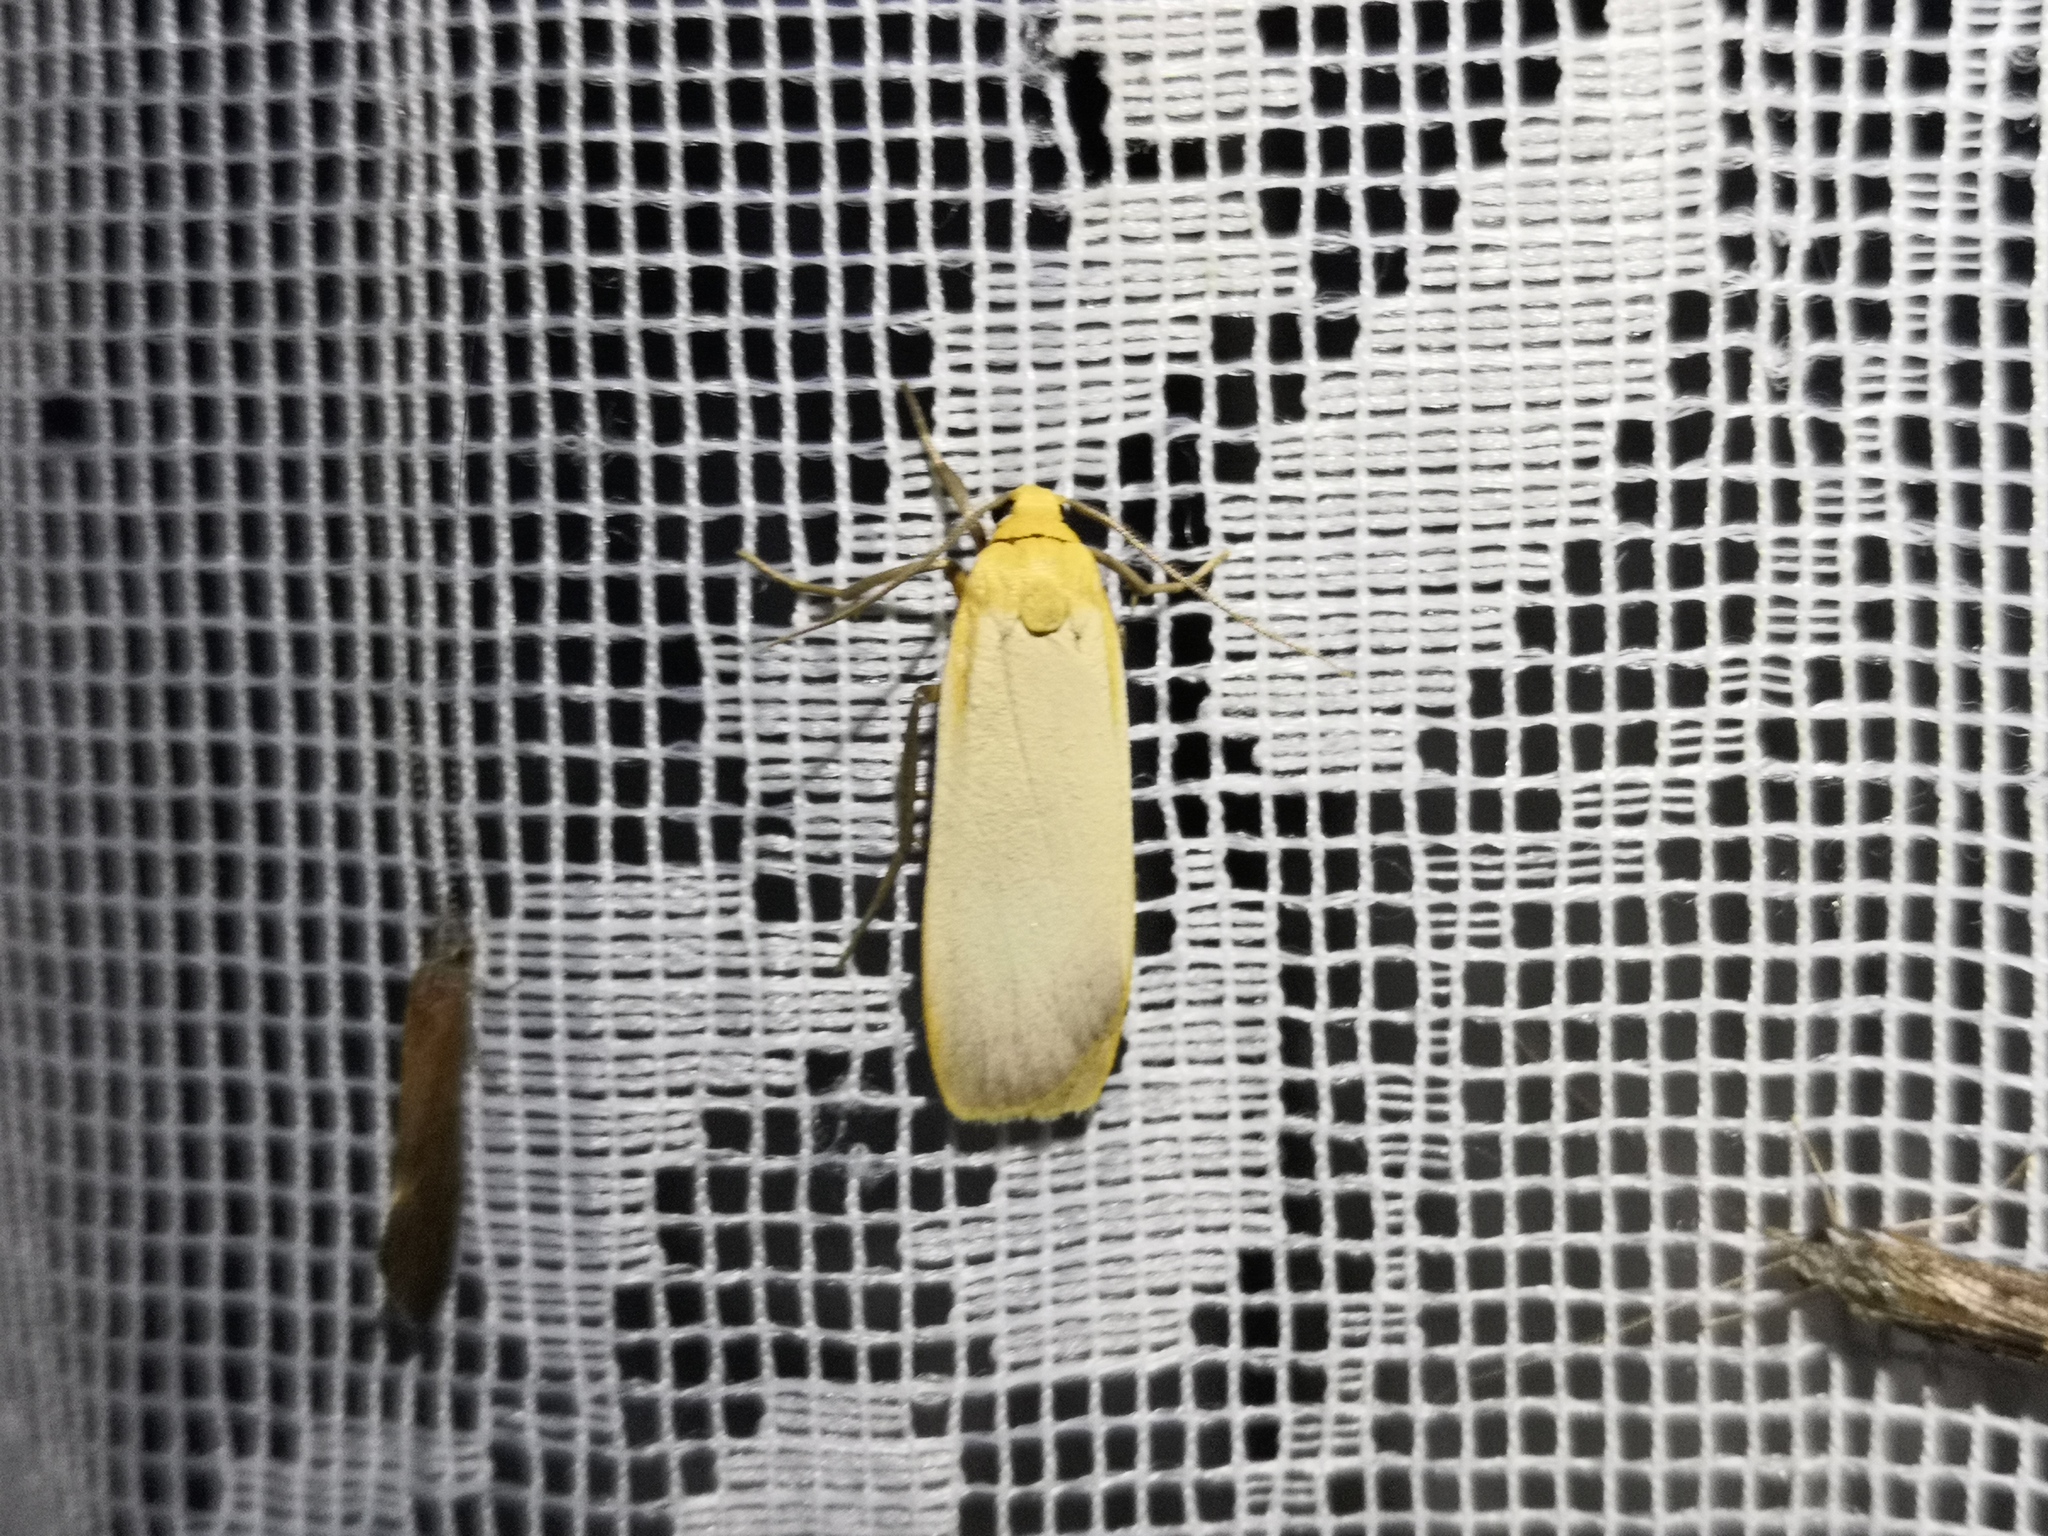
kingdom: Animalia
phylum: Arthropoda
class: Insecta
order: Lepidoptera
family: Erebidae
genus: Katha
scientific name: Katha depressa
